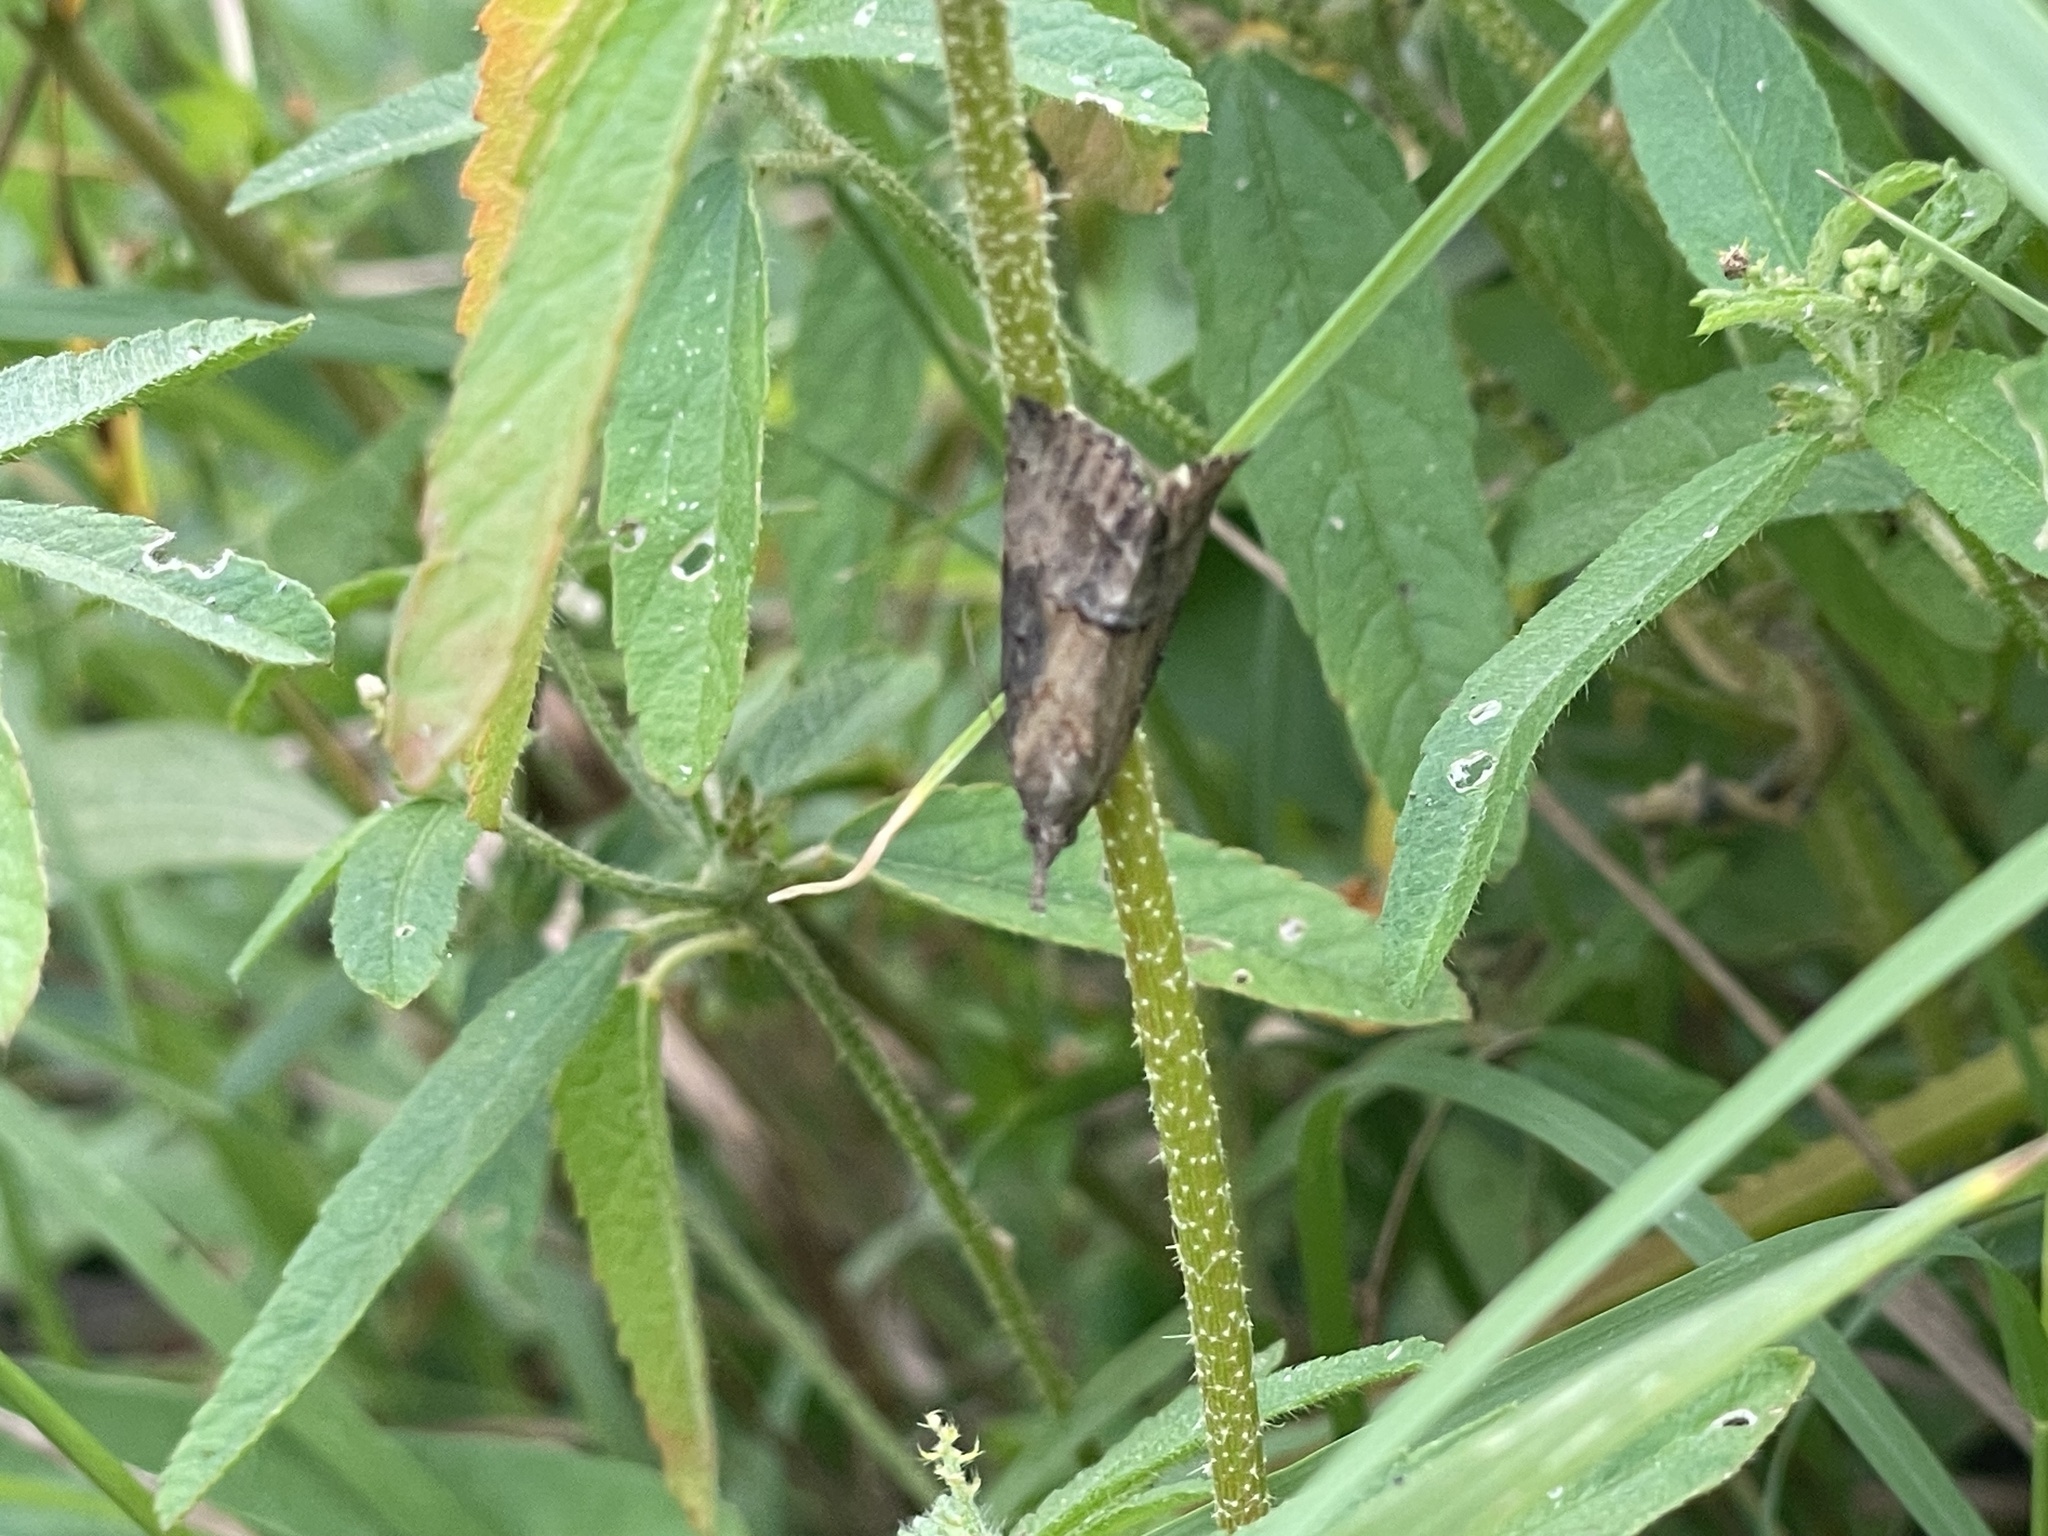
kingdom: Animalia
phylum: Arthropoda
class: Insecta
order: Lepidoptera
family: Erebidae
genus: Hypena
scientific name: Hypena scabra
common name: Green cloverworm
